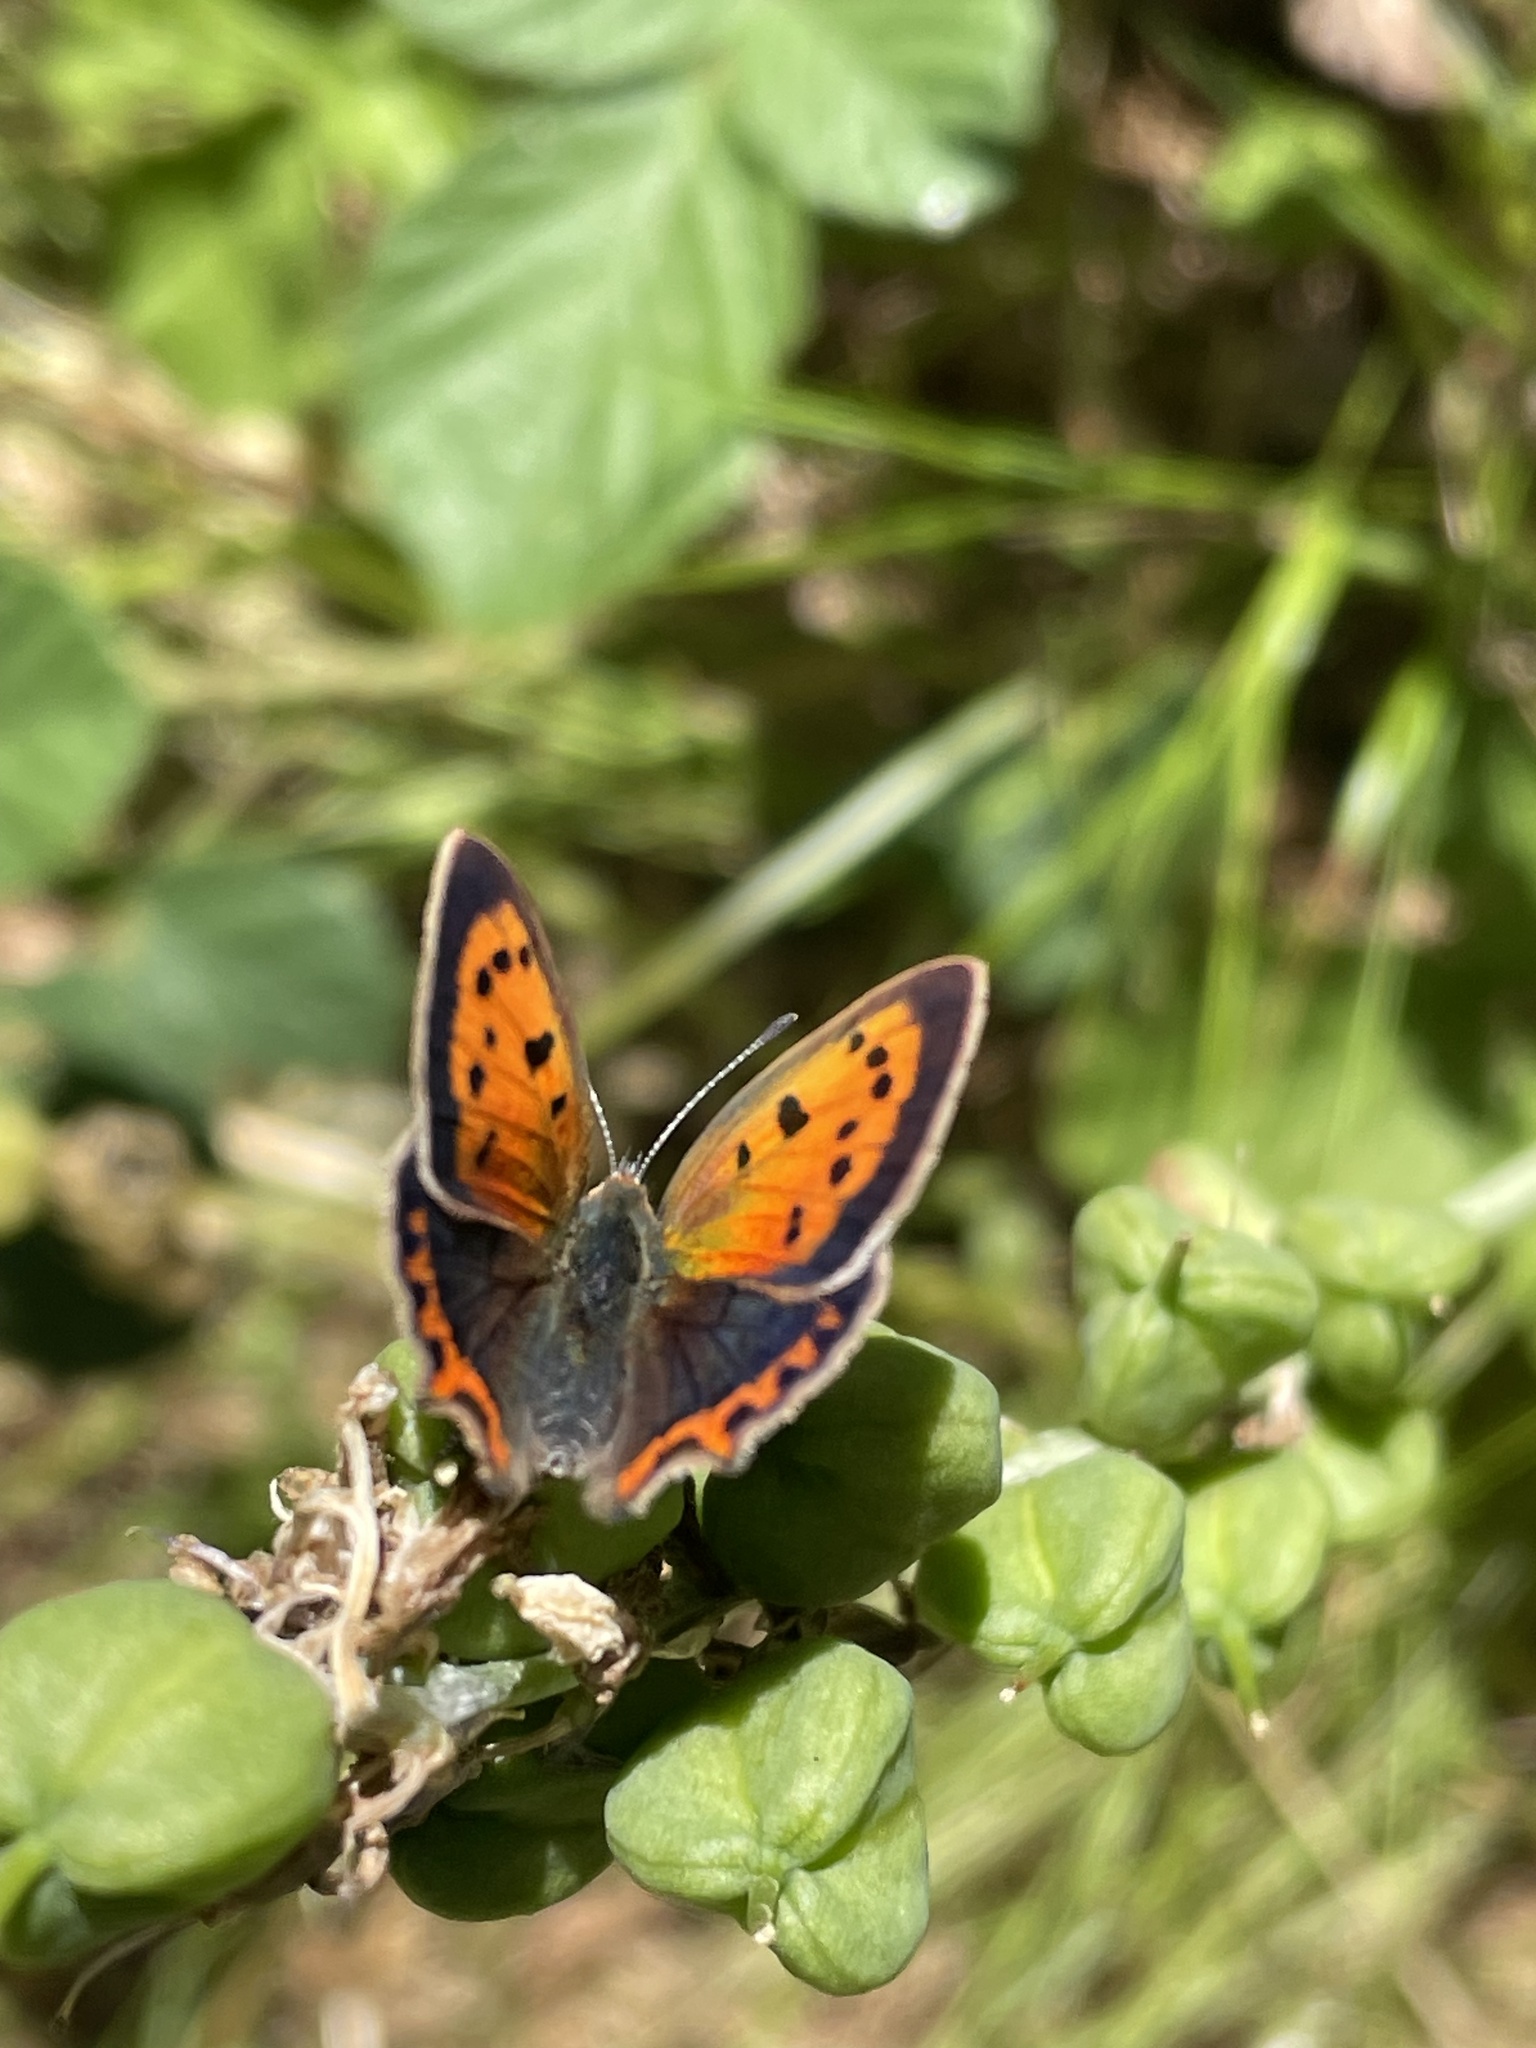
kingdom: Animalia
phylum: Arthropoda
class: Insecta
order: Lepidoptera
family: Lycaenidae
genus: Lycaena
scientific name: Lycaena phlaeas
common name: Small copper
